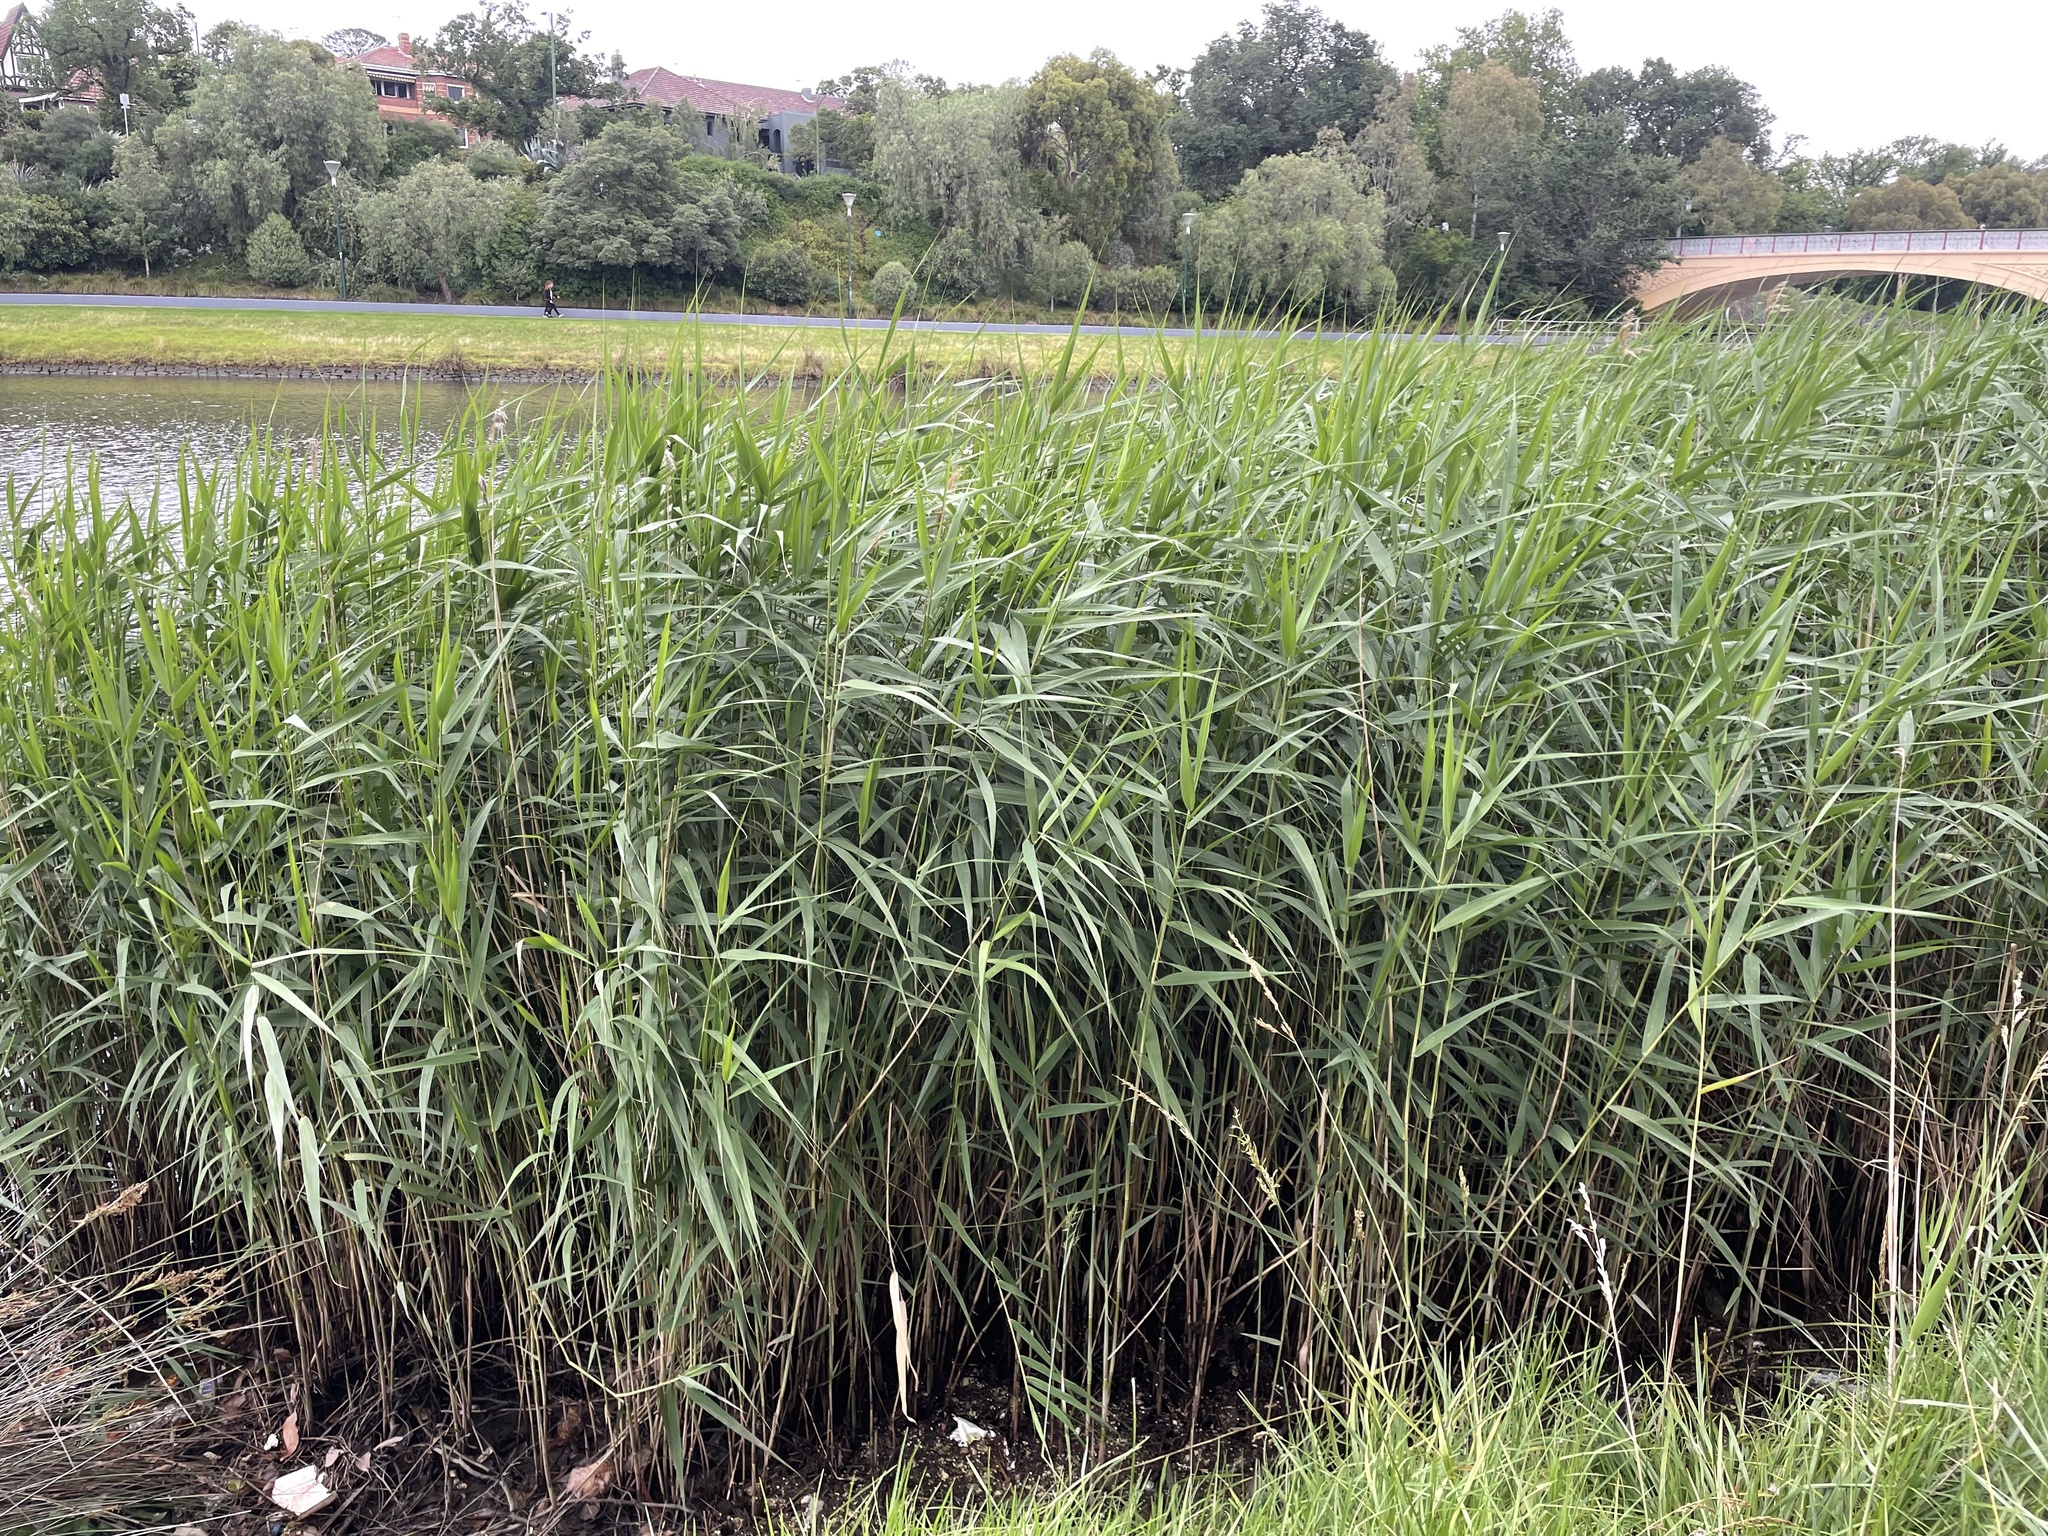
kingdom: Plantae
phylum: Tracheophyta
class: Liliopsida
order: Poales
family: Poaceae
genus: Phragmites
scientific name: Phragmites australis
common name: Common reed
